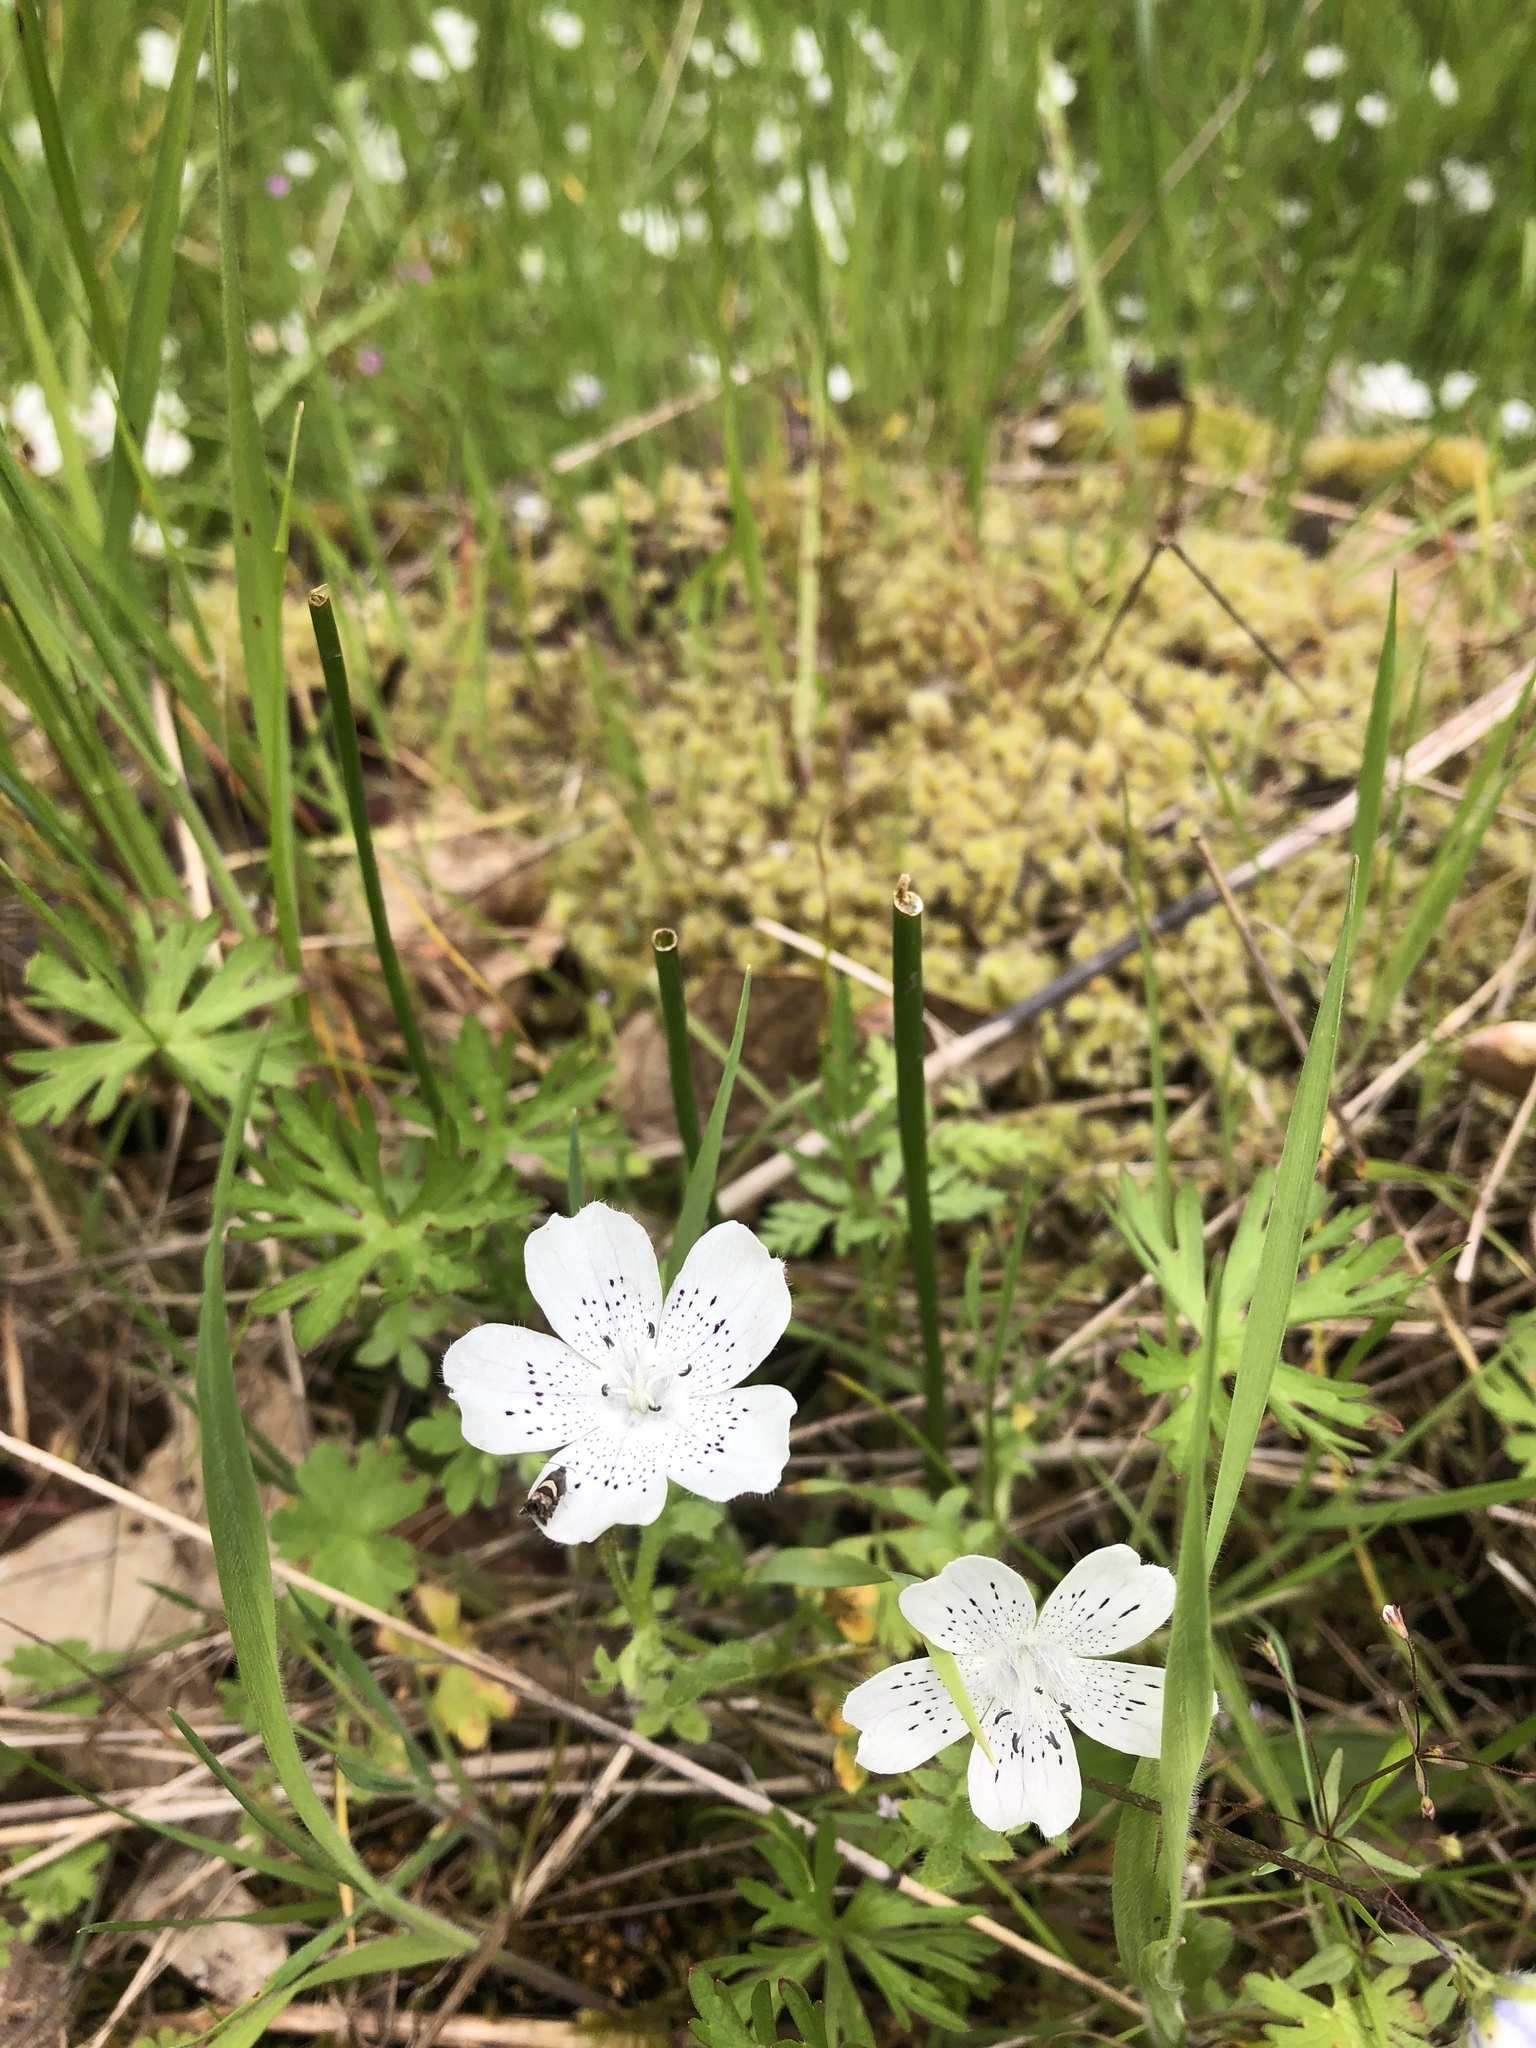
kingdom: Plantae
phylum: Tracheophyta
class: Magnoliopsida
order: Boraginales
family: Hydrophyllaceae
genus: Nemophila
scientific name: Nemophila menziesii
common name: Baby's-blue-eyes
